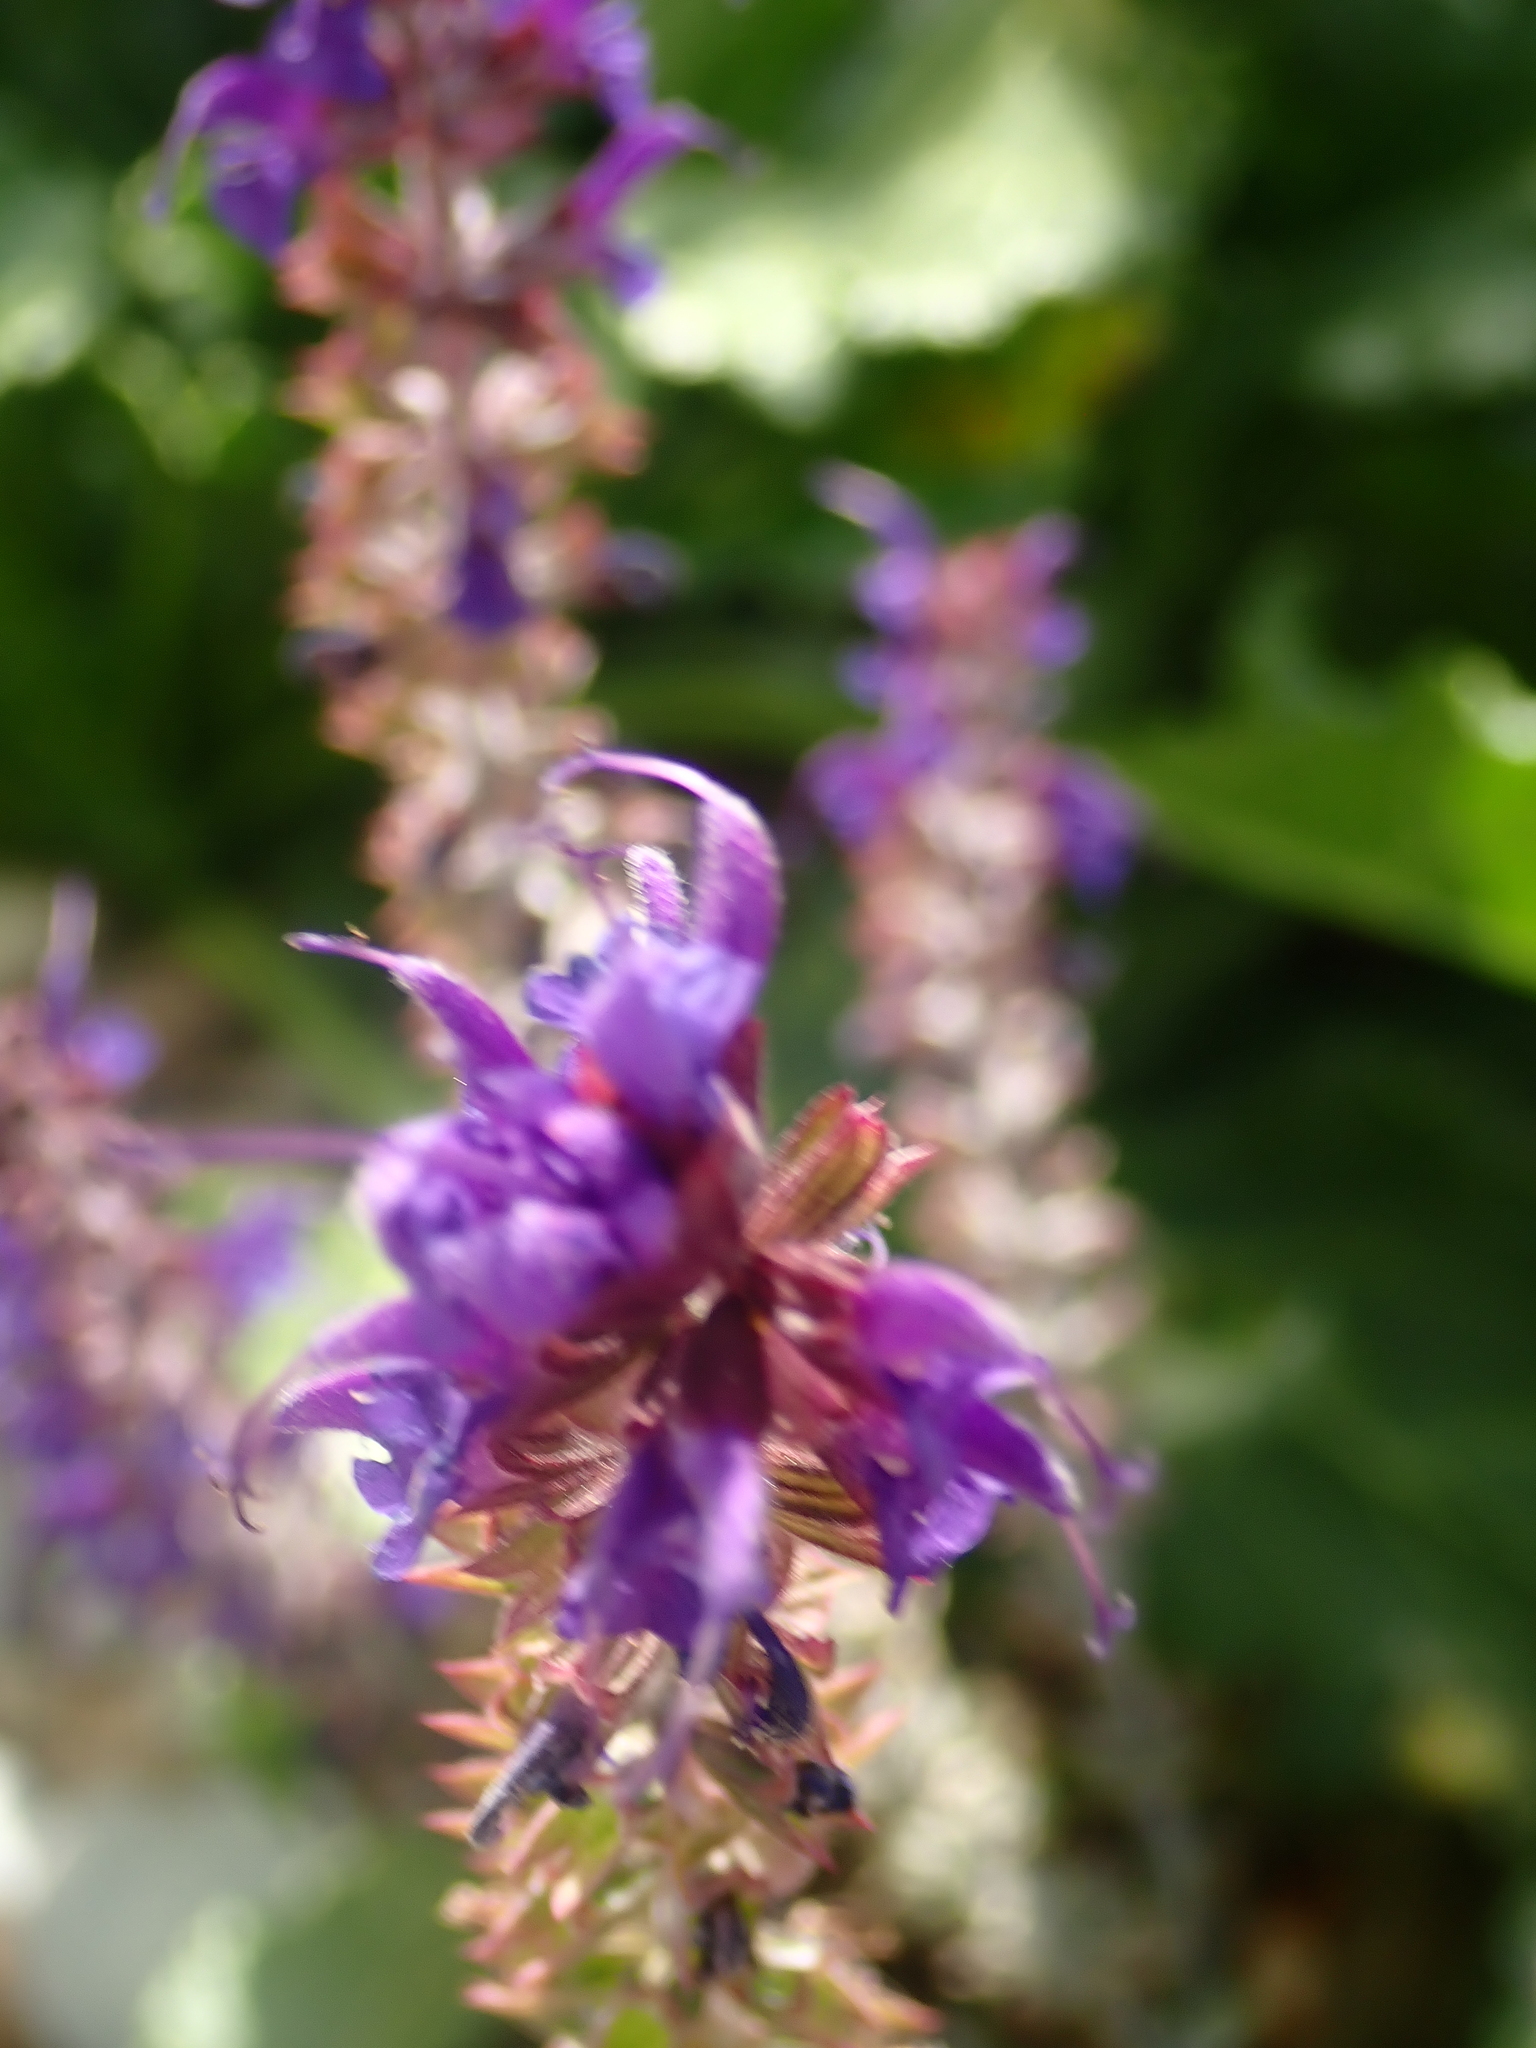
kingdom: Plantae
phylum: Tracheophyta
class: Magnoliopsida
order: Lamiales
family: Lamiaceae
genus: Salvia
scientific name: Salvia nemorosa
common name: Balkan clary
